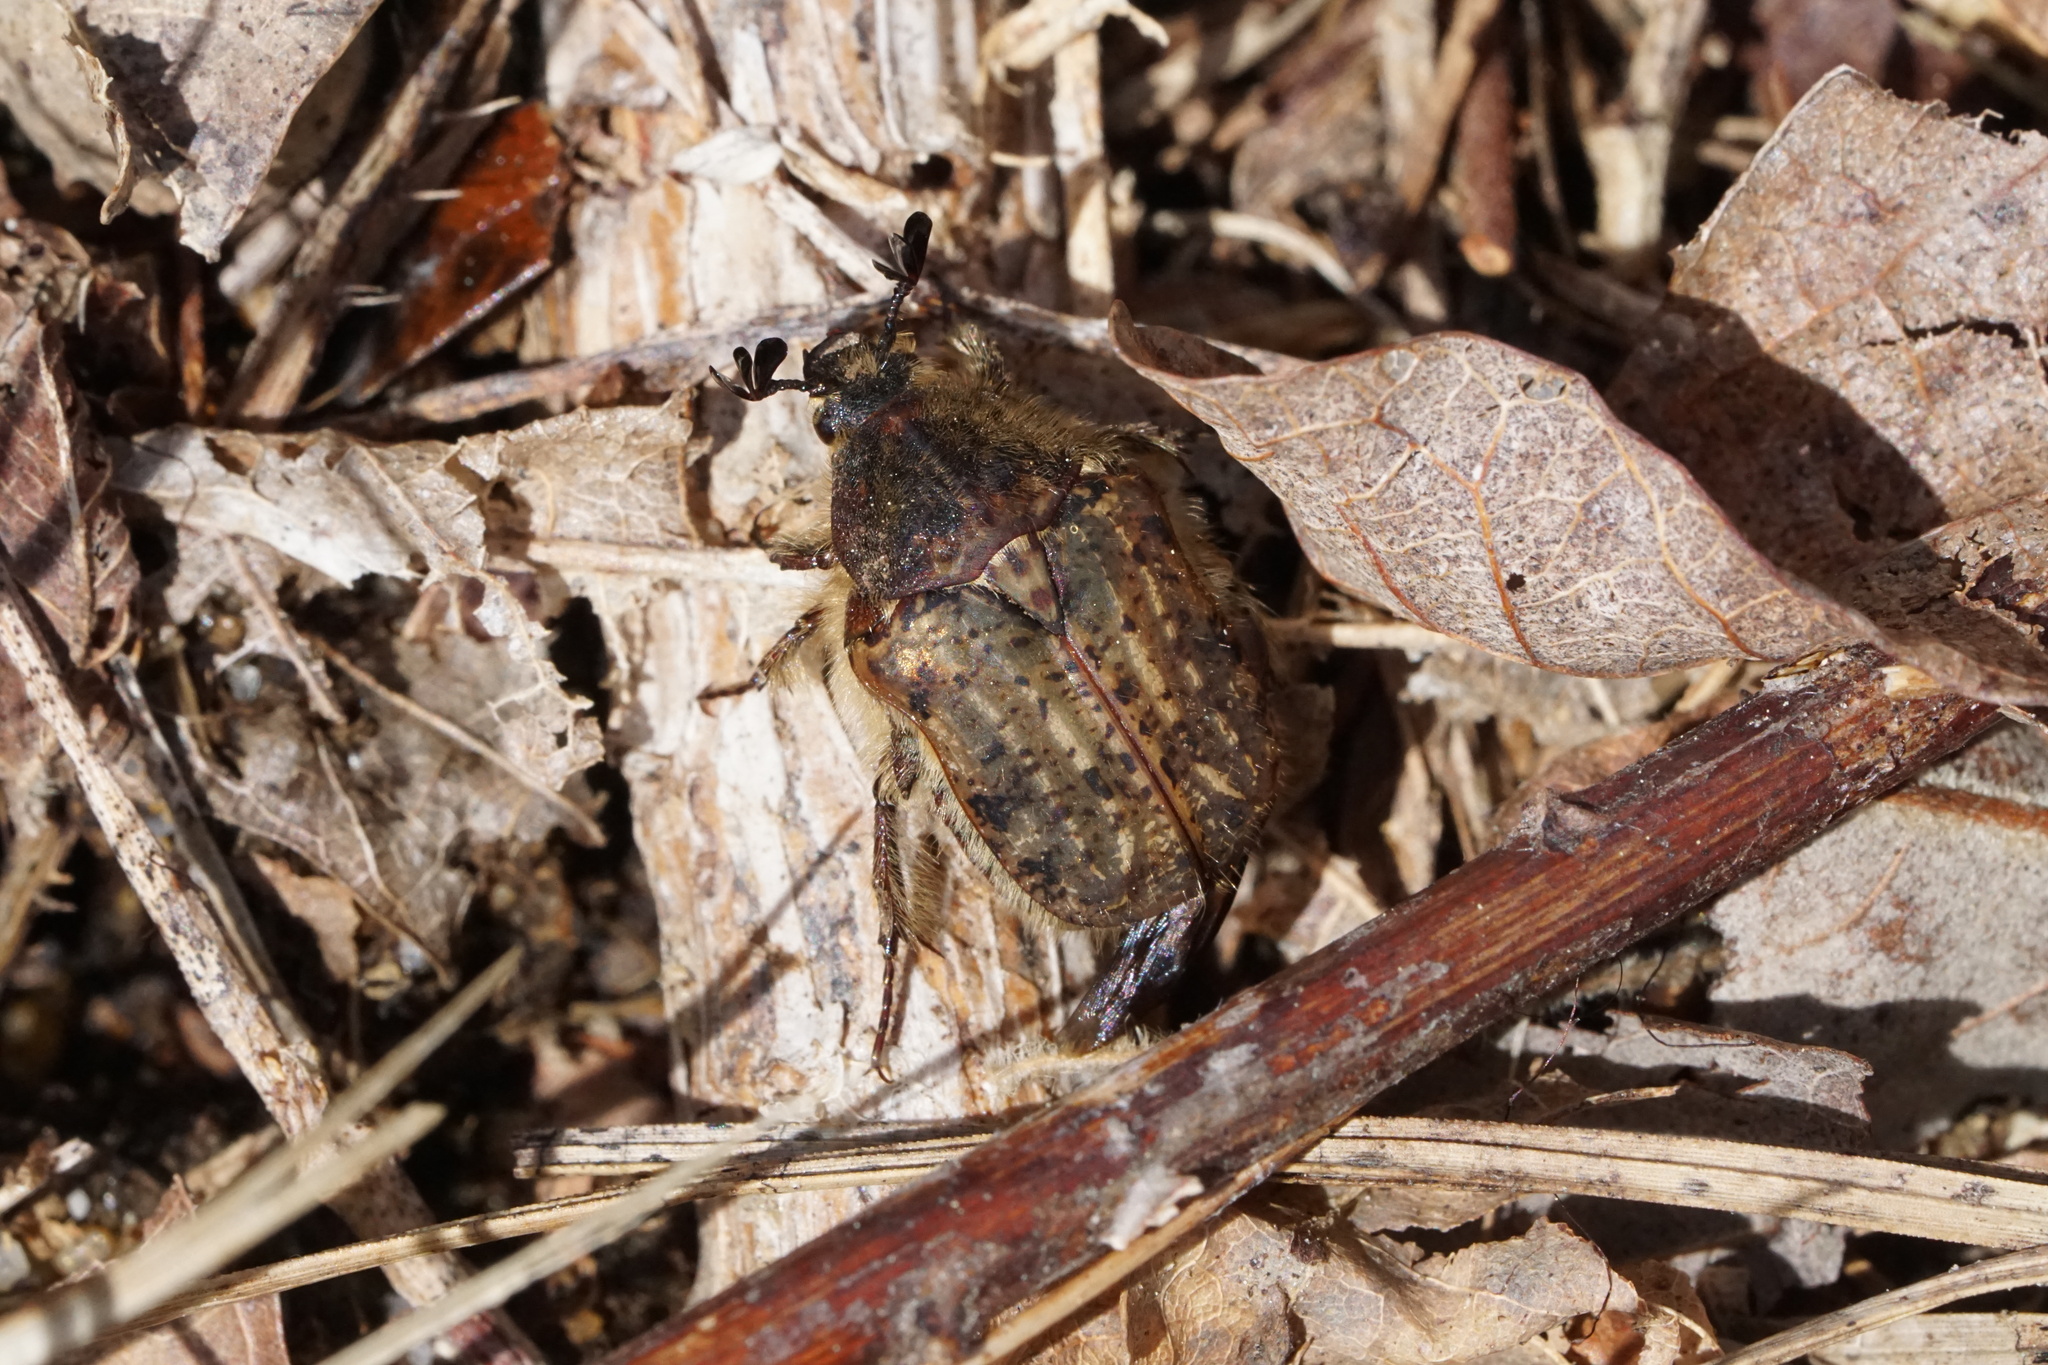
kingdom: Animalia
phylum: Arthropoda
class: Insecta
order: Coleoptera
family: Scarabaeidae
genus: Euphoria
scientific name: Euphoria inda
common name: Bumble flower beetle
